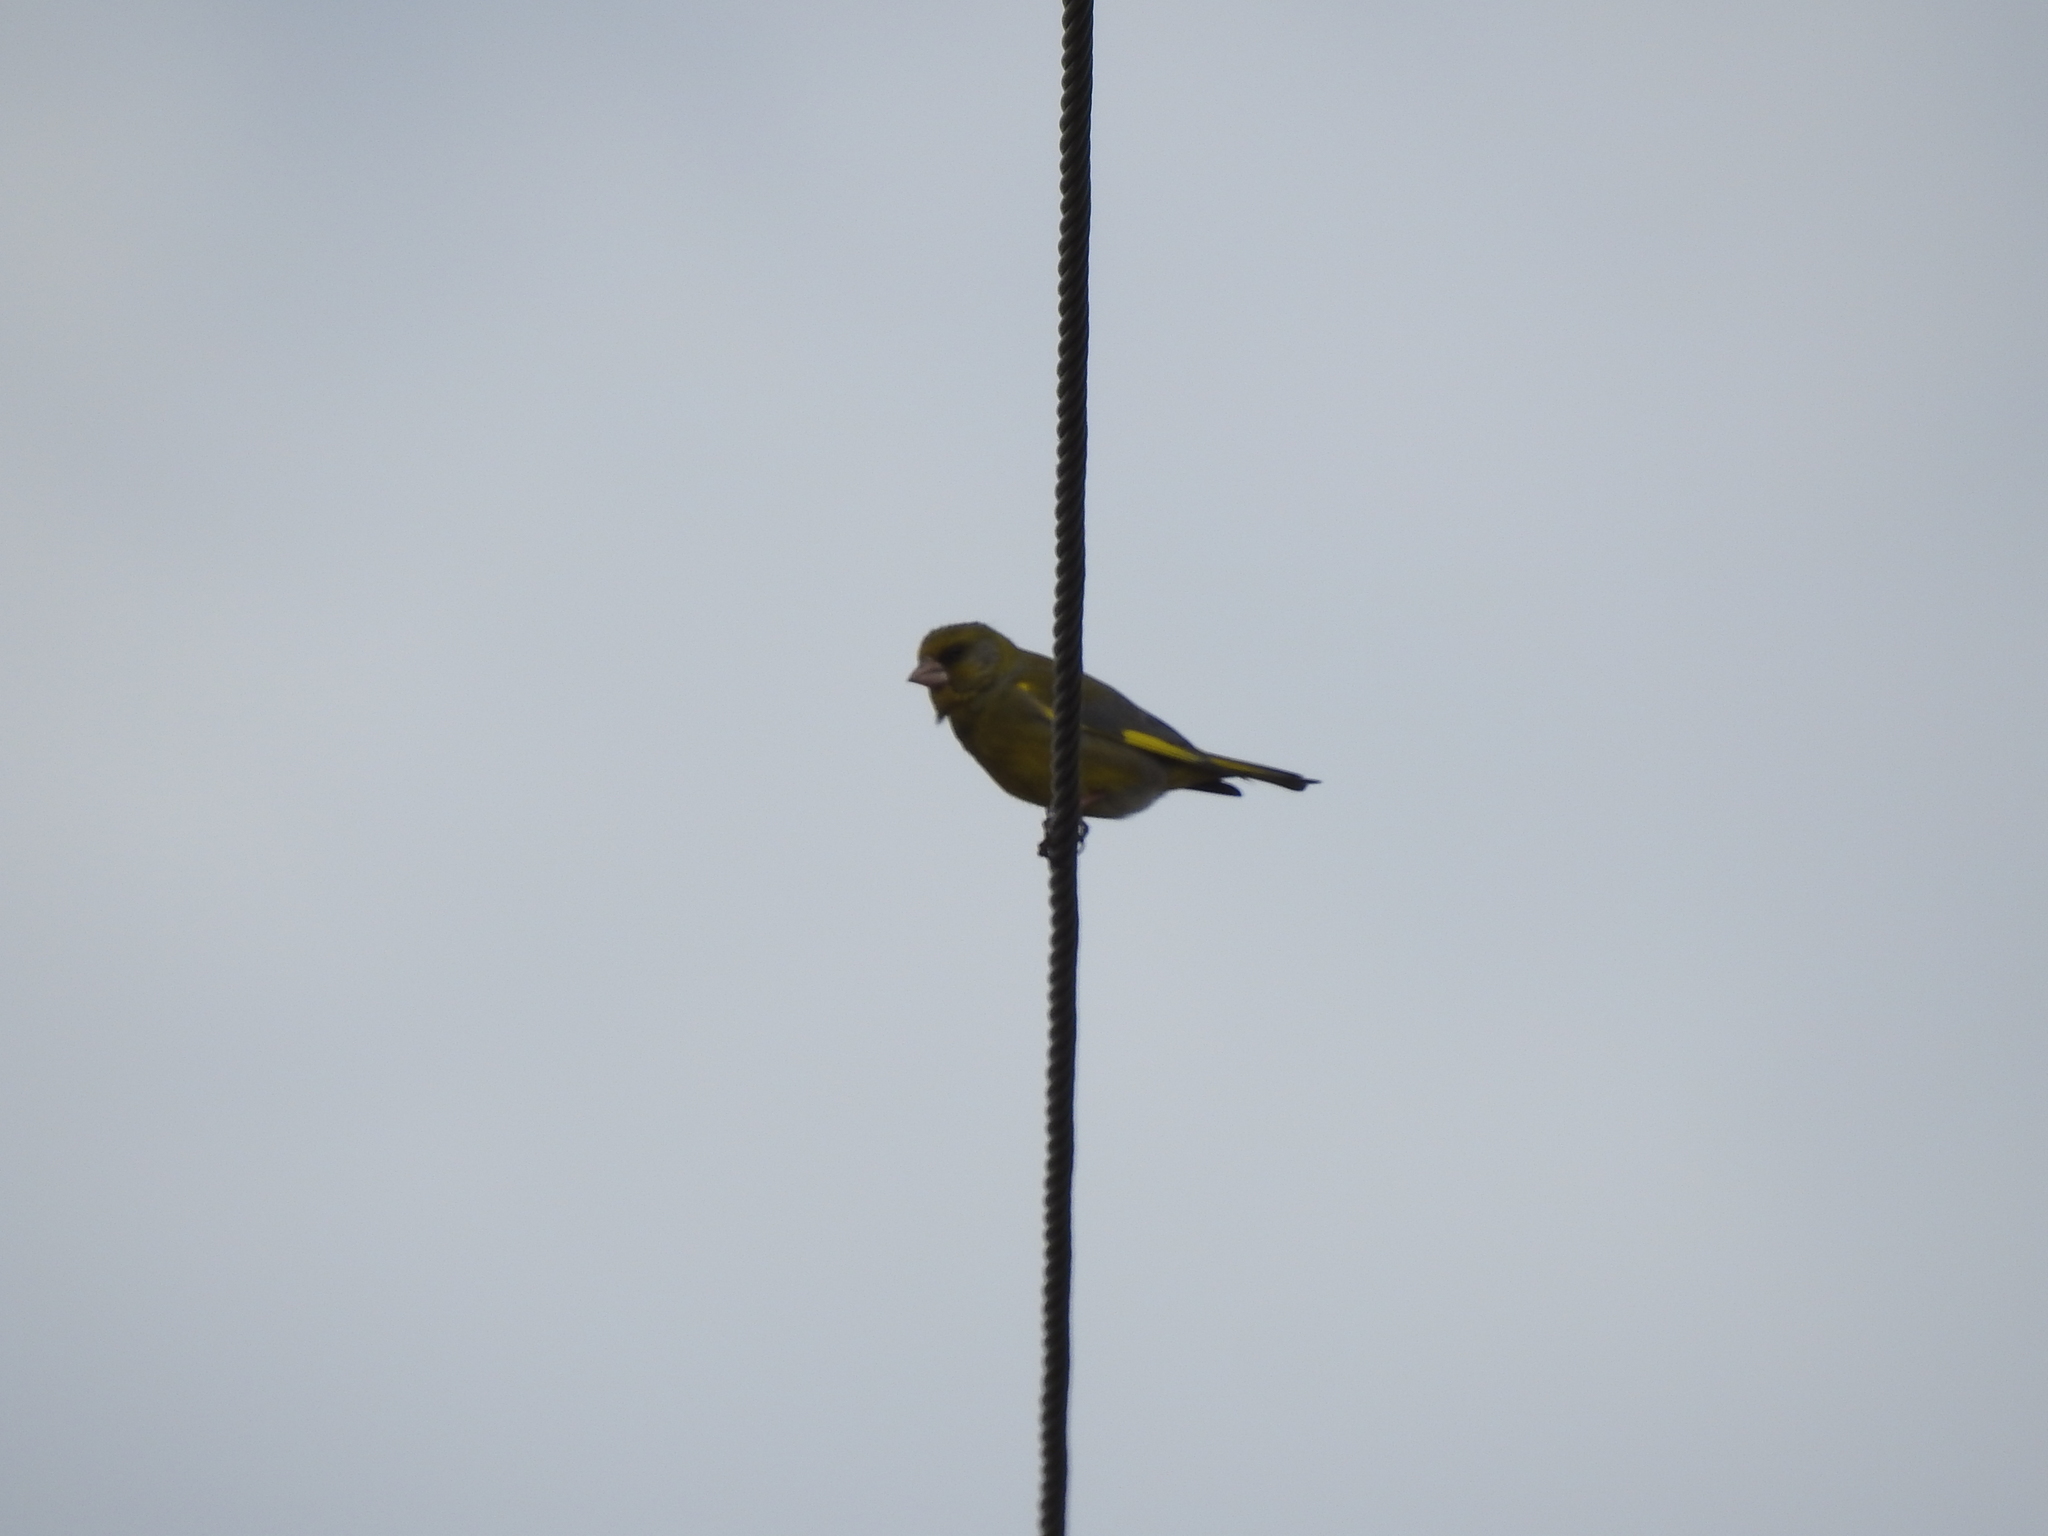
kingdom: Plantae
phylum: Tracheophyta
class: Liliopsida
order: Poales
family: Poaceae
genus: Chloris
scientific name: Chloris chloris
